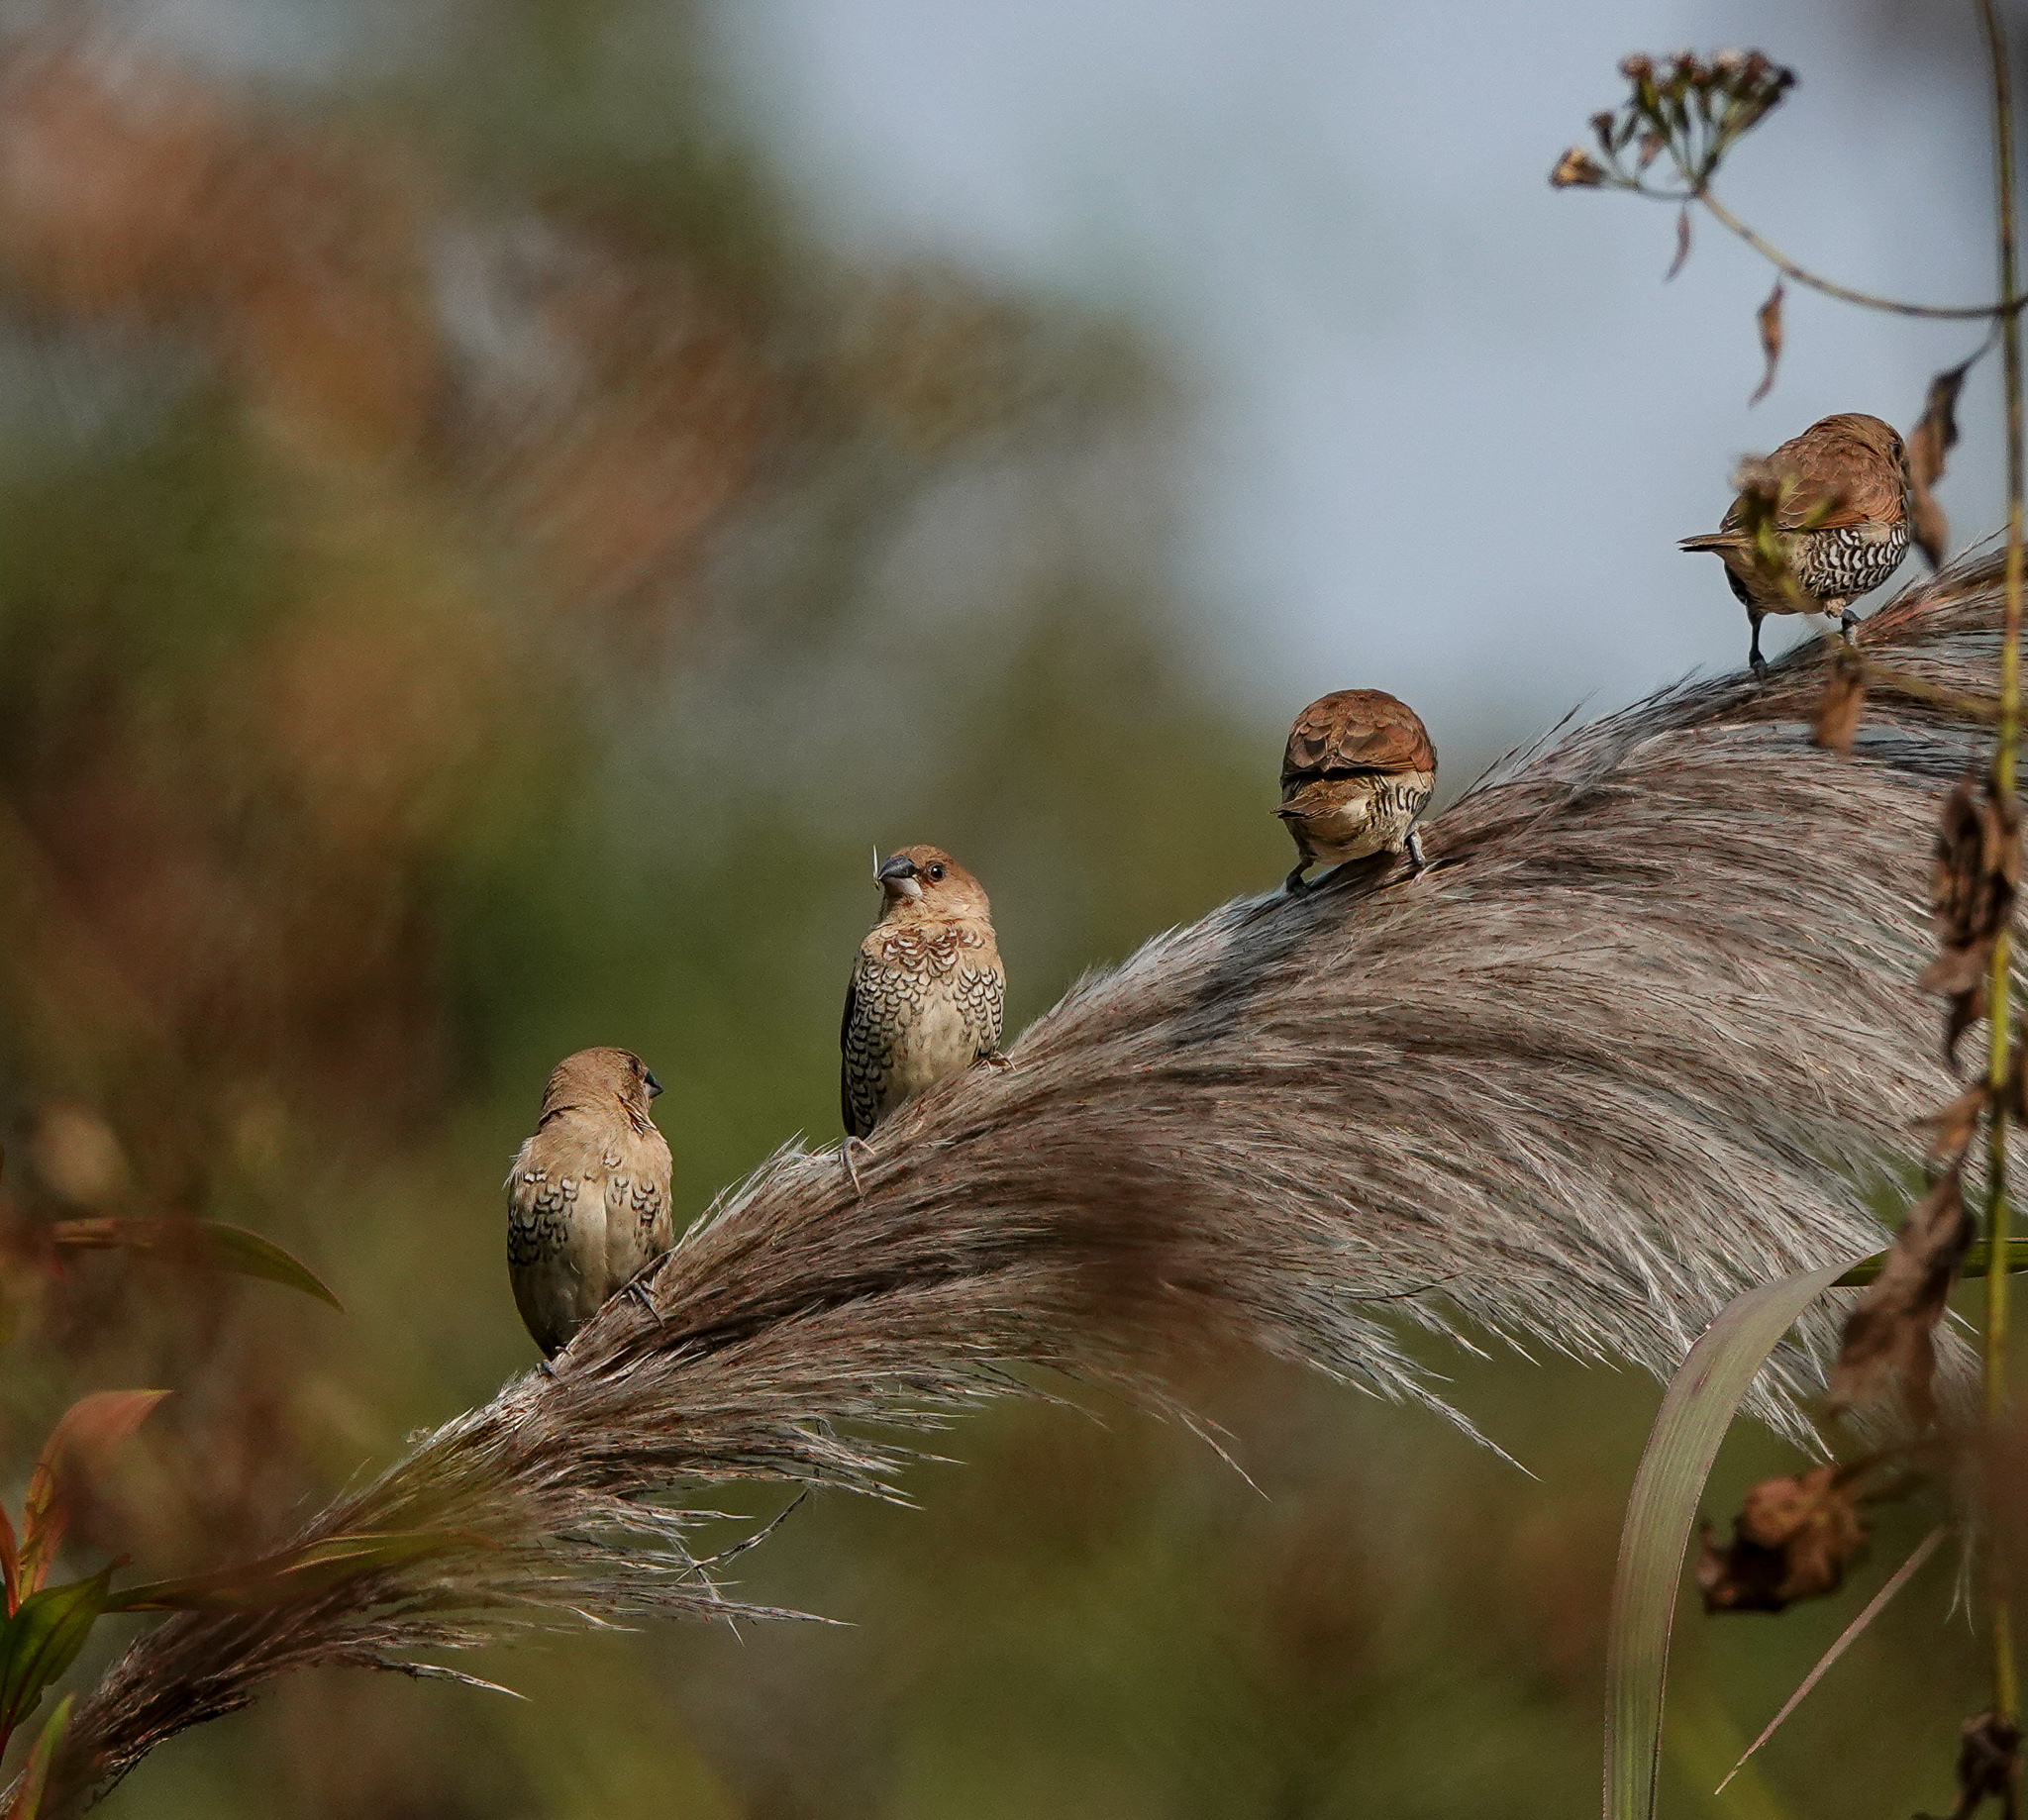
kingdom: Animalia
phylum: Chordata
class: Aves
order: Passeriformes
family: Estrildidae
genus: Lonchura
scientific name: Lonchura punctulata
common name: Scaly-breasted munia
